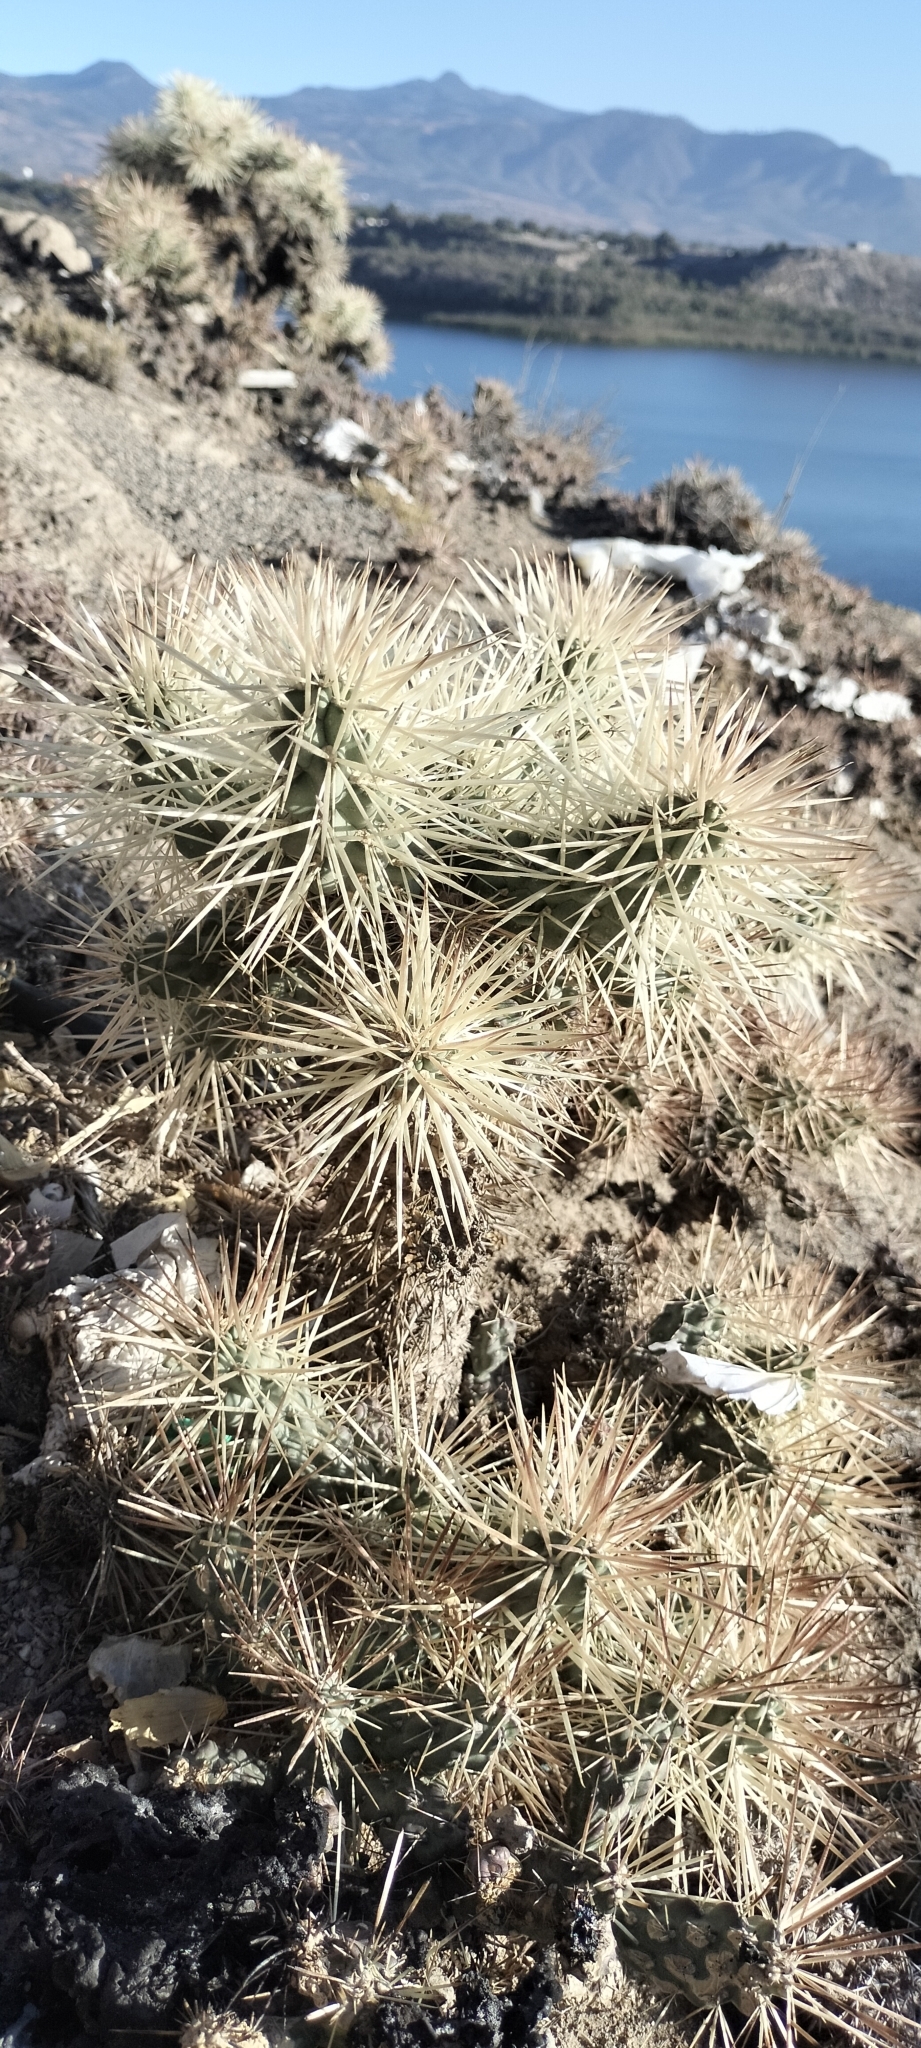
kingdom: Plantae
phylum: Tracheophyta
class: Magnoliopsida
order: Caryophyllales
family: Cactaceae
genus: Cylindropuntia
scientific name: Cylindropuntia tunicata
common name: Sheathed cholla
